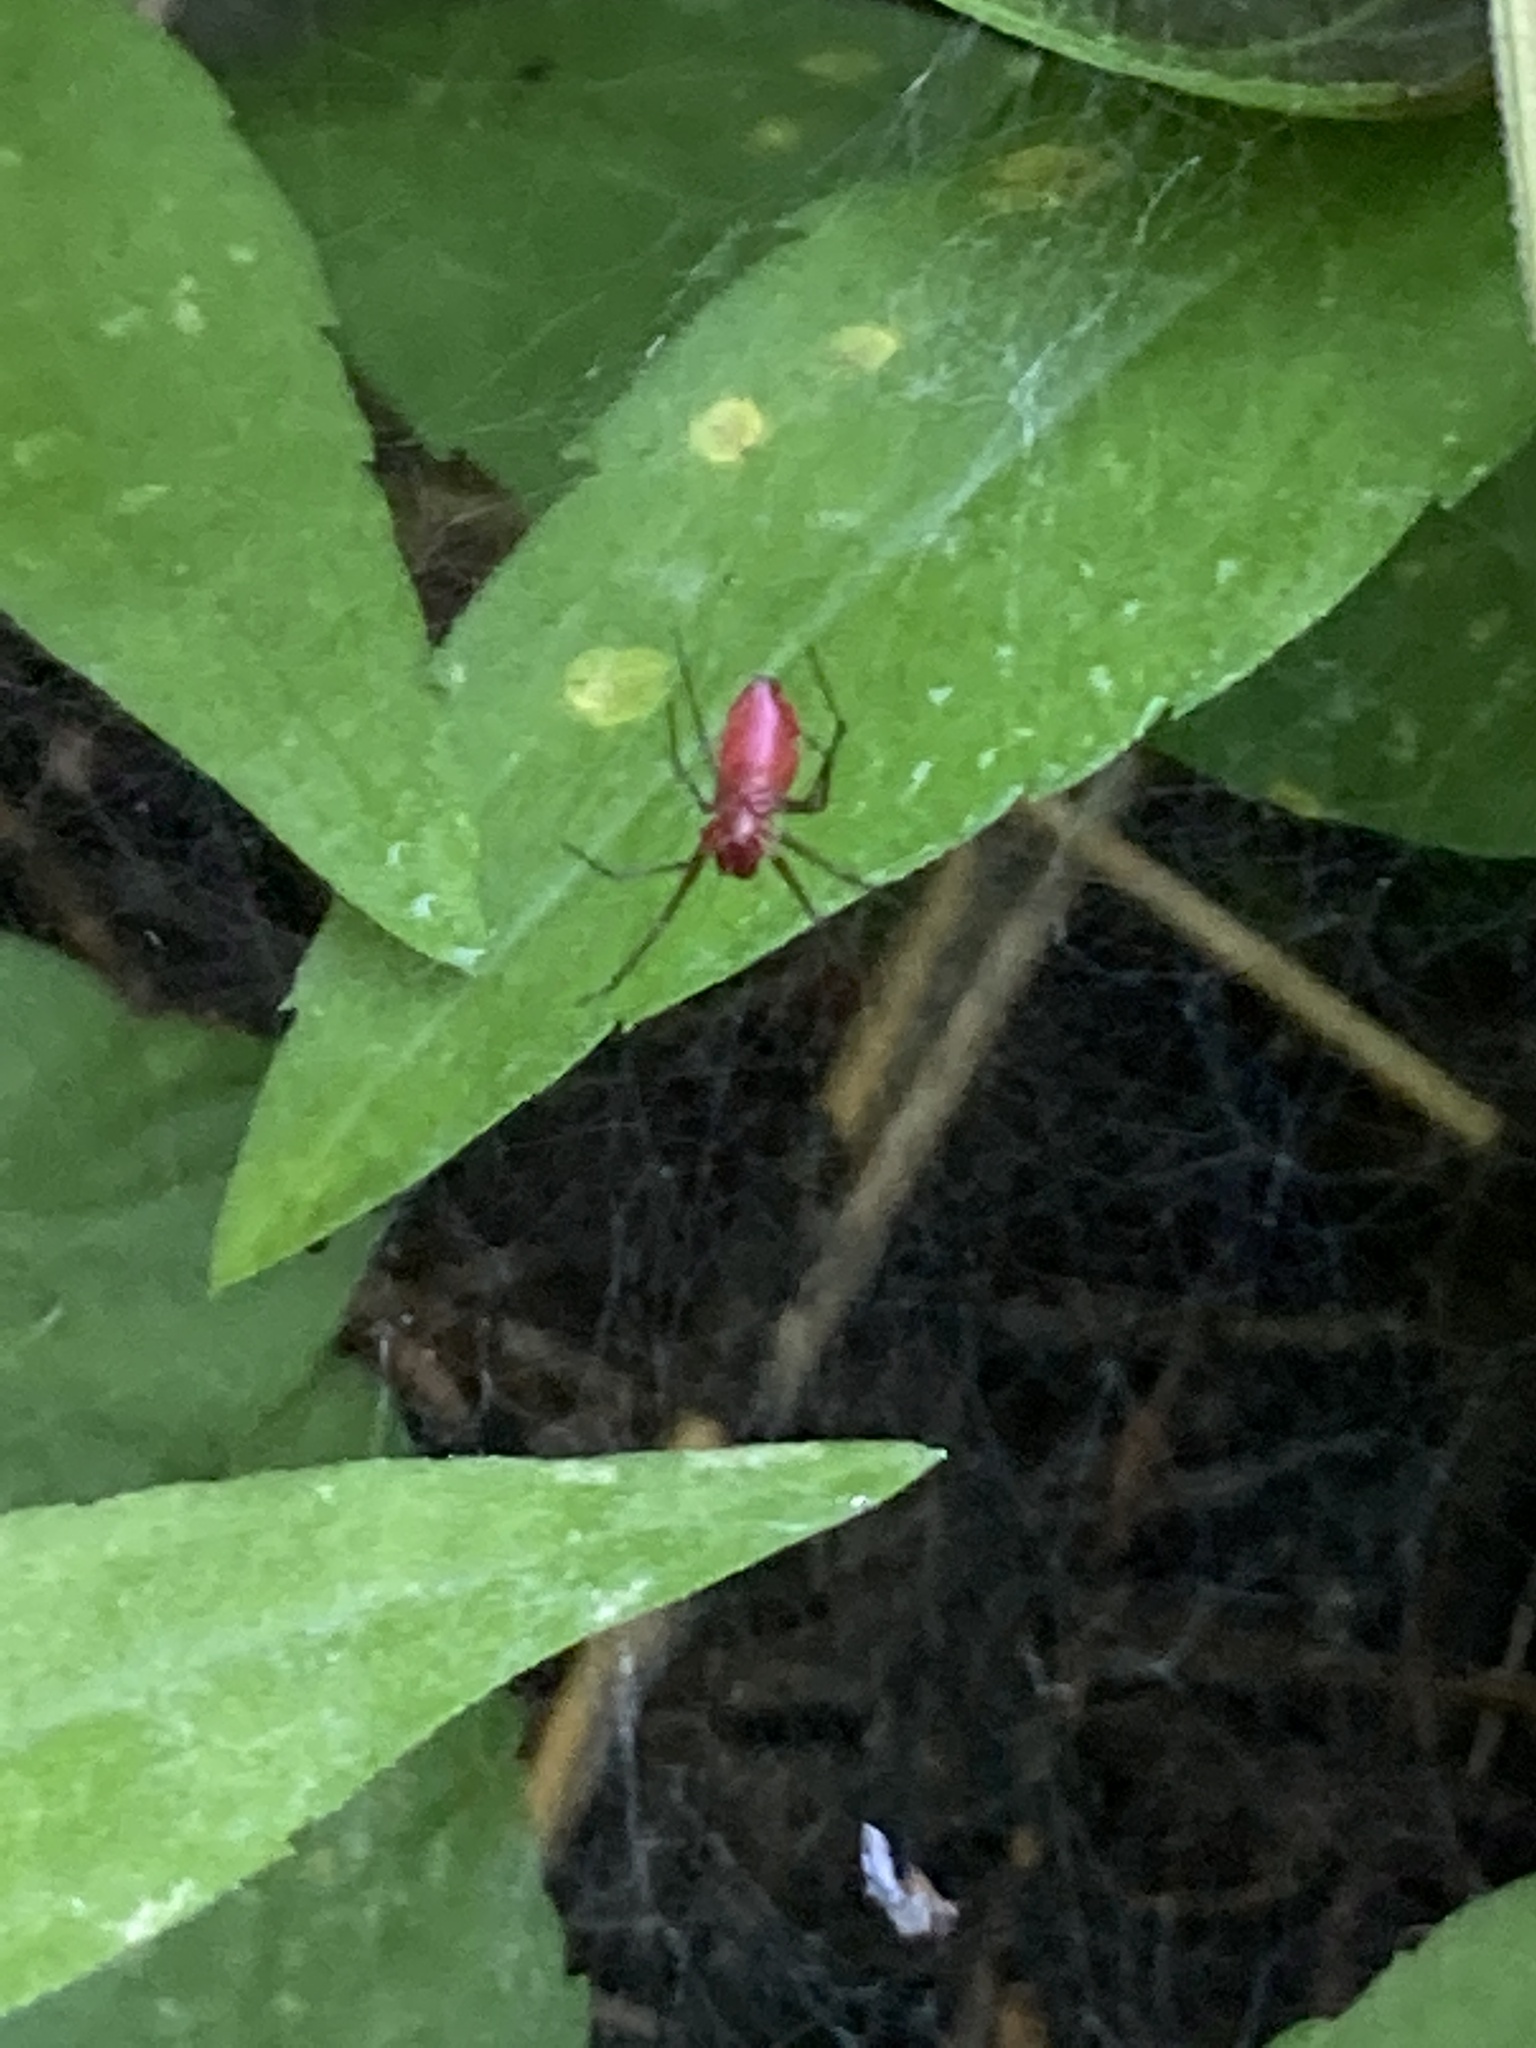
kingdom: Animalia
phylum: Arthropoda
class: Arachnida
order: Araneae
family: Linyphiidae
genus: Florinda
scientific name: Florinda coccinea
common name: Black-tailed red sheetweaver
